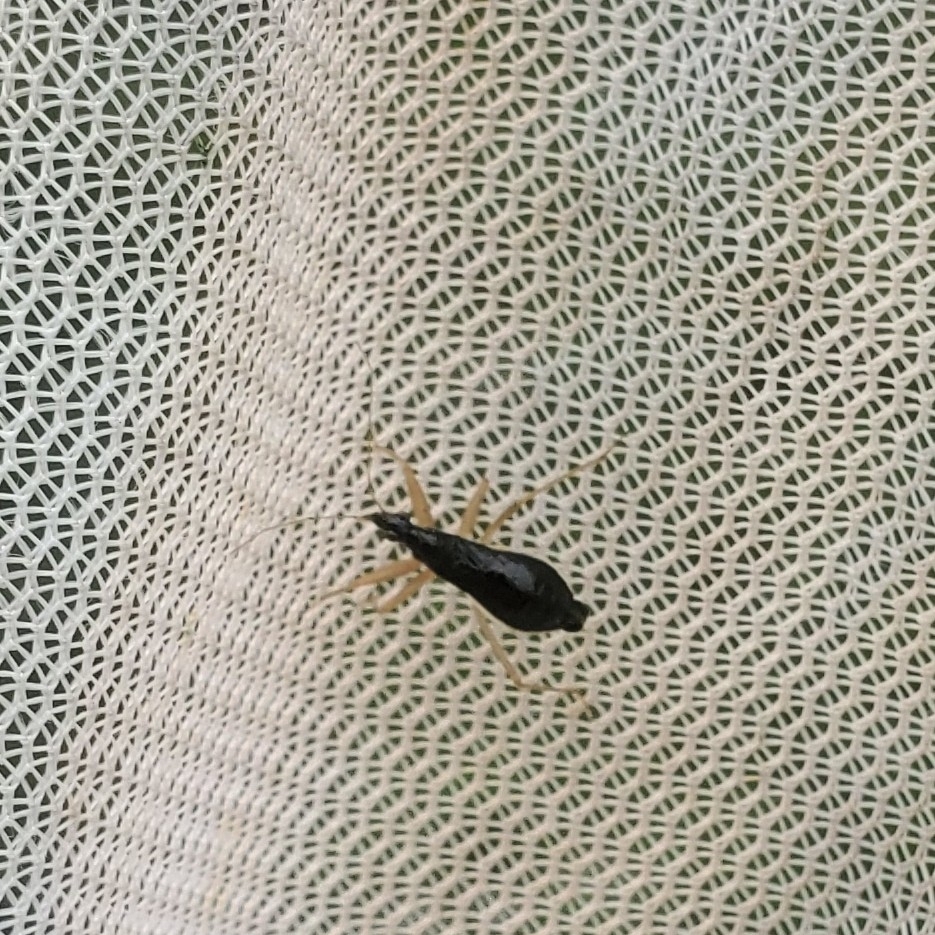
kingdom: Animalia
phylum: Arthropoda
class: Insecta
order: Hemiptera
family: Nabidae
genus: Nabis
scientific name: Nabis
